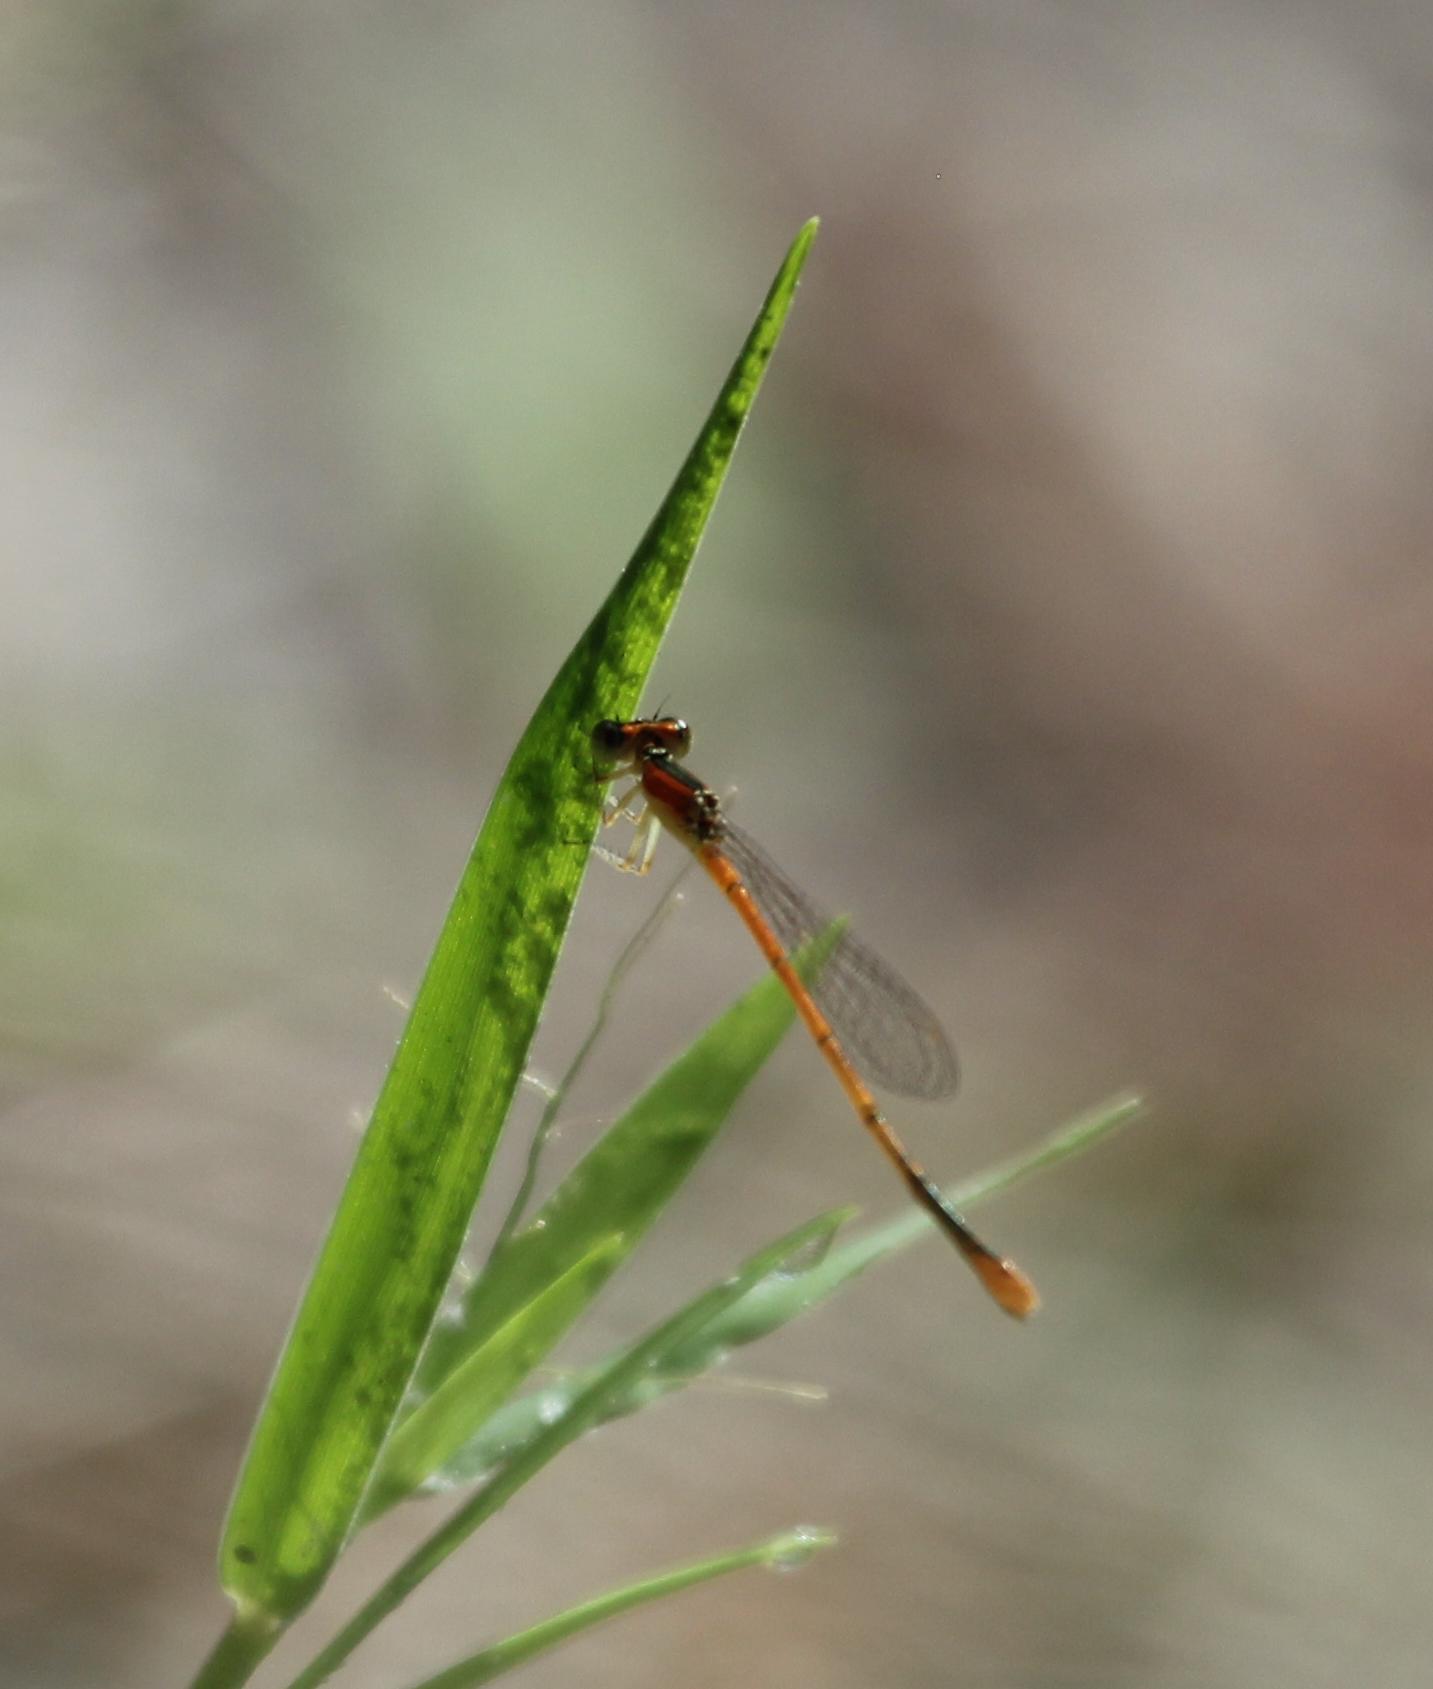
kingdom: Animalia
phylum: Arthropoda
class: Insecta
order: Odonata
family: Coenagrionidae
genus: Ischnura
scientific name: Ischnura hastata
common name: Citrine forktail
